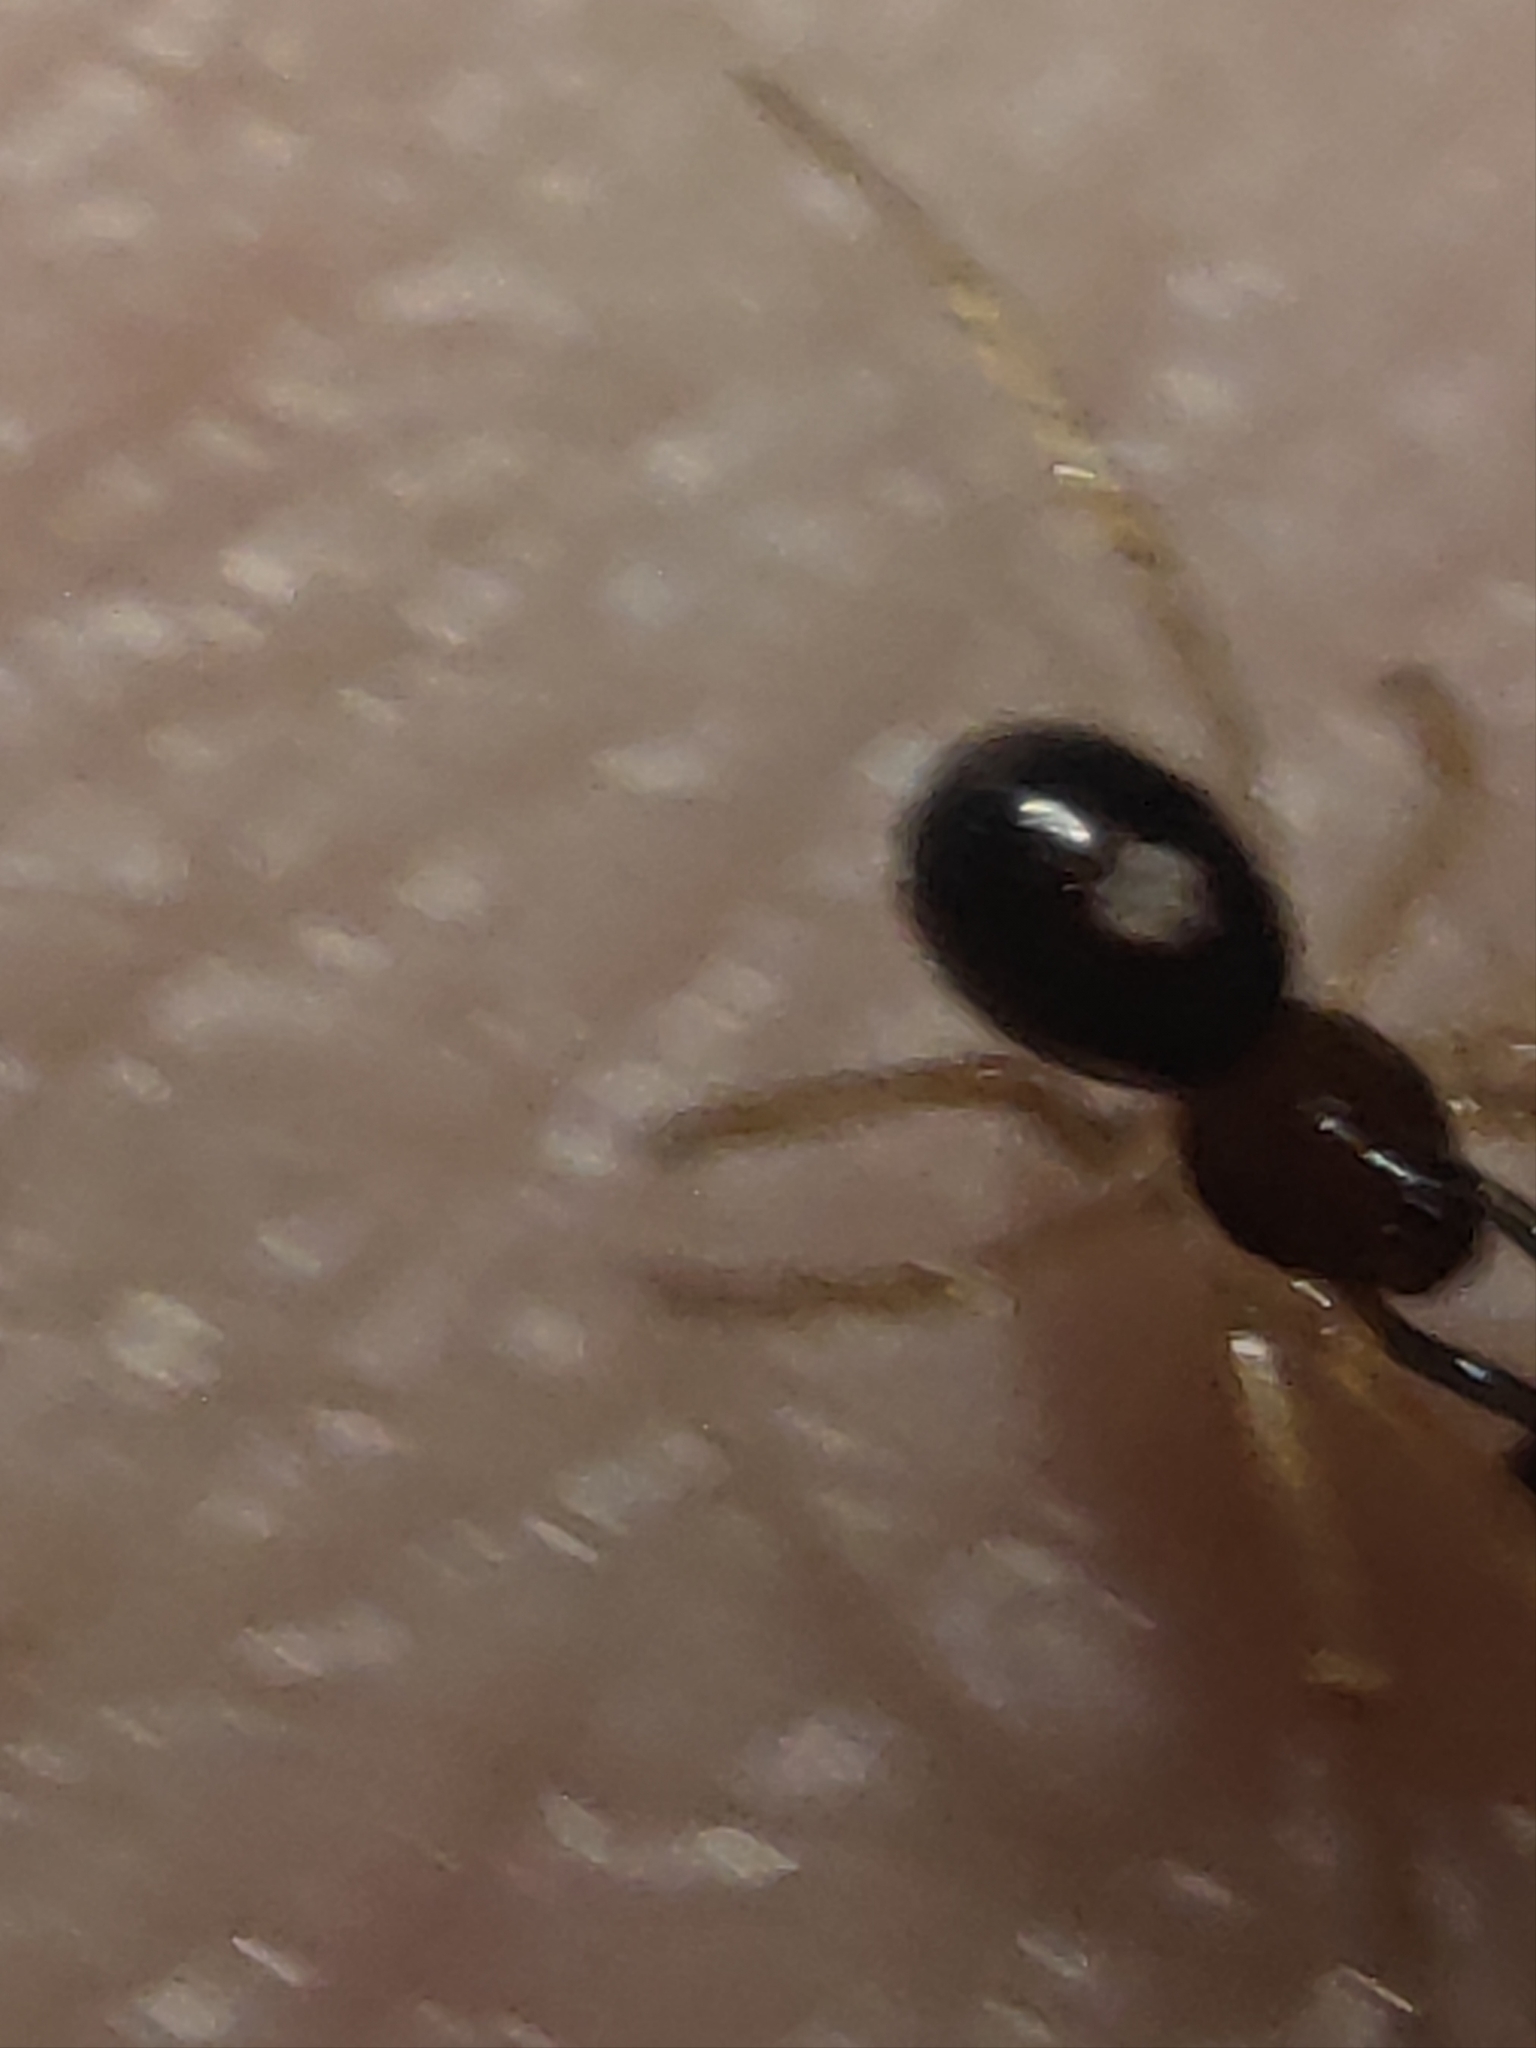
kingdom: Animalia
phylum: Arthropoda
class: Arachnida
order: Araneae
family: Theridiidae
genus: Neottiura
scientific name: Neottiura bimaculata
